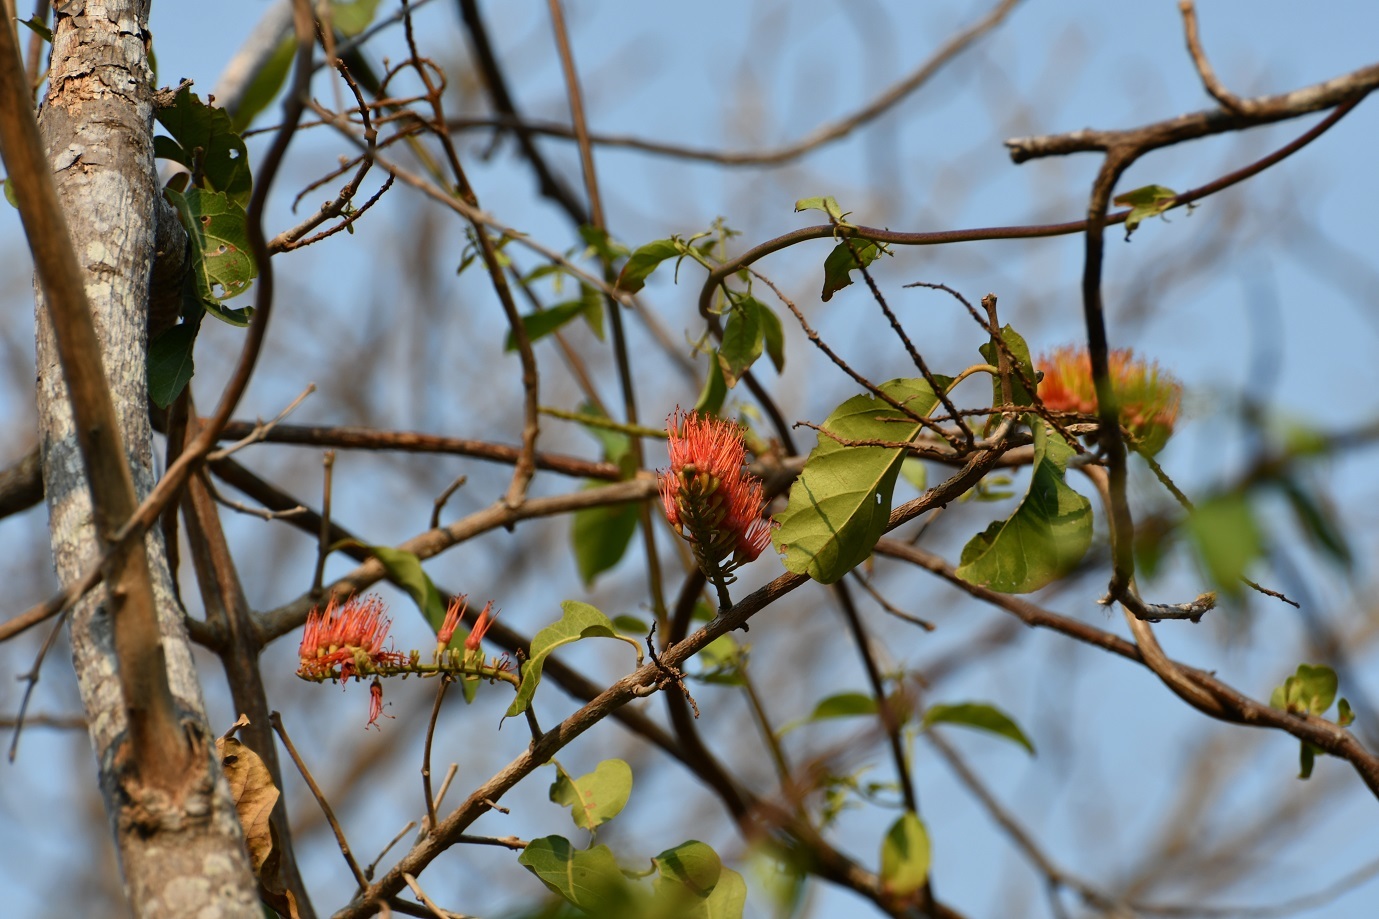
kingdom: Plantae
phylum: Tracheophyta
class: Magnoliopsida
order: Myrtales
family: Combretaceae
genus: Combretum
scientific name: Combretum farinosum
